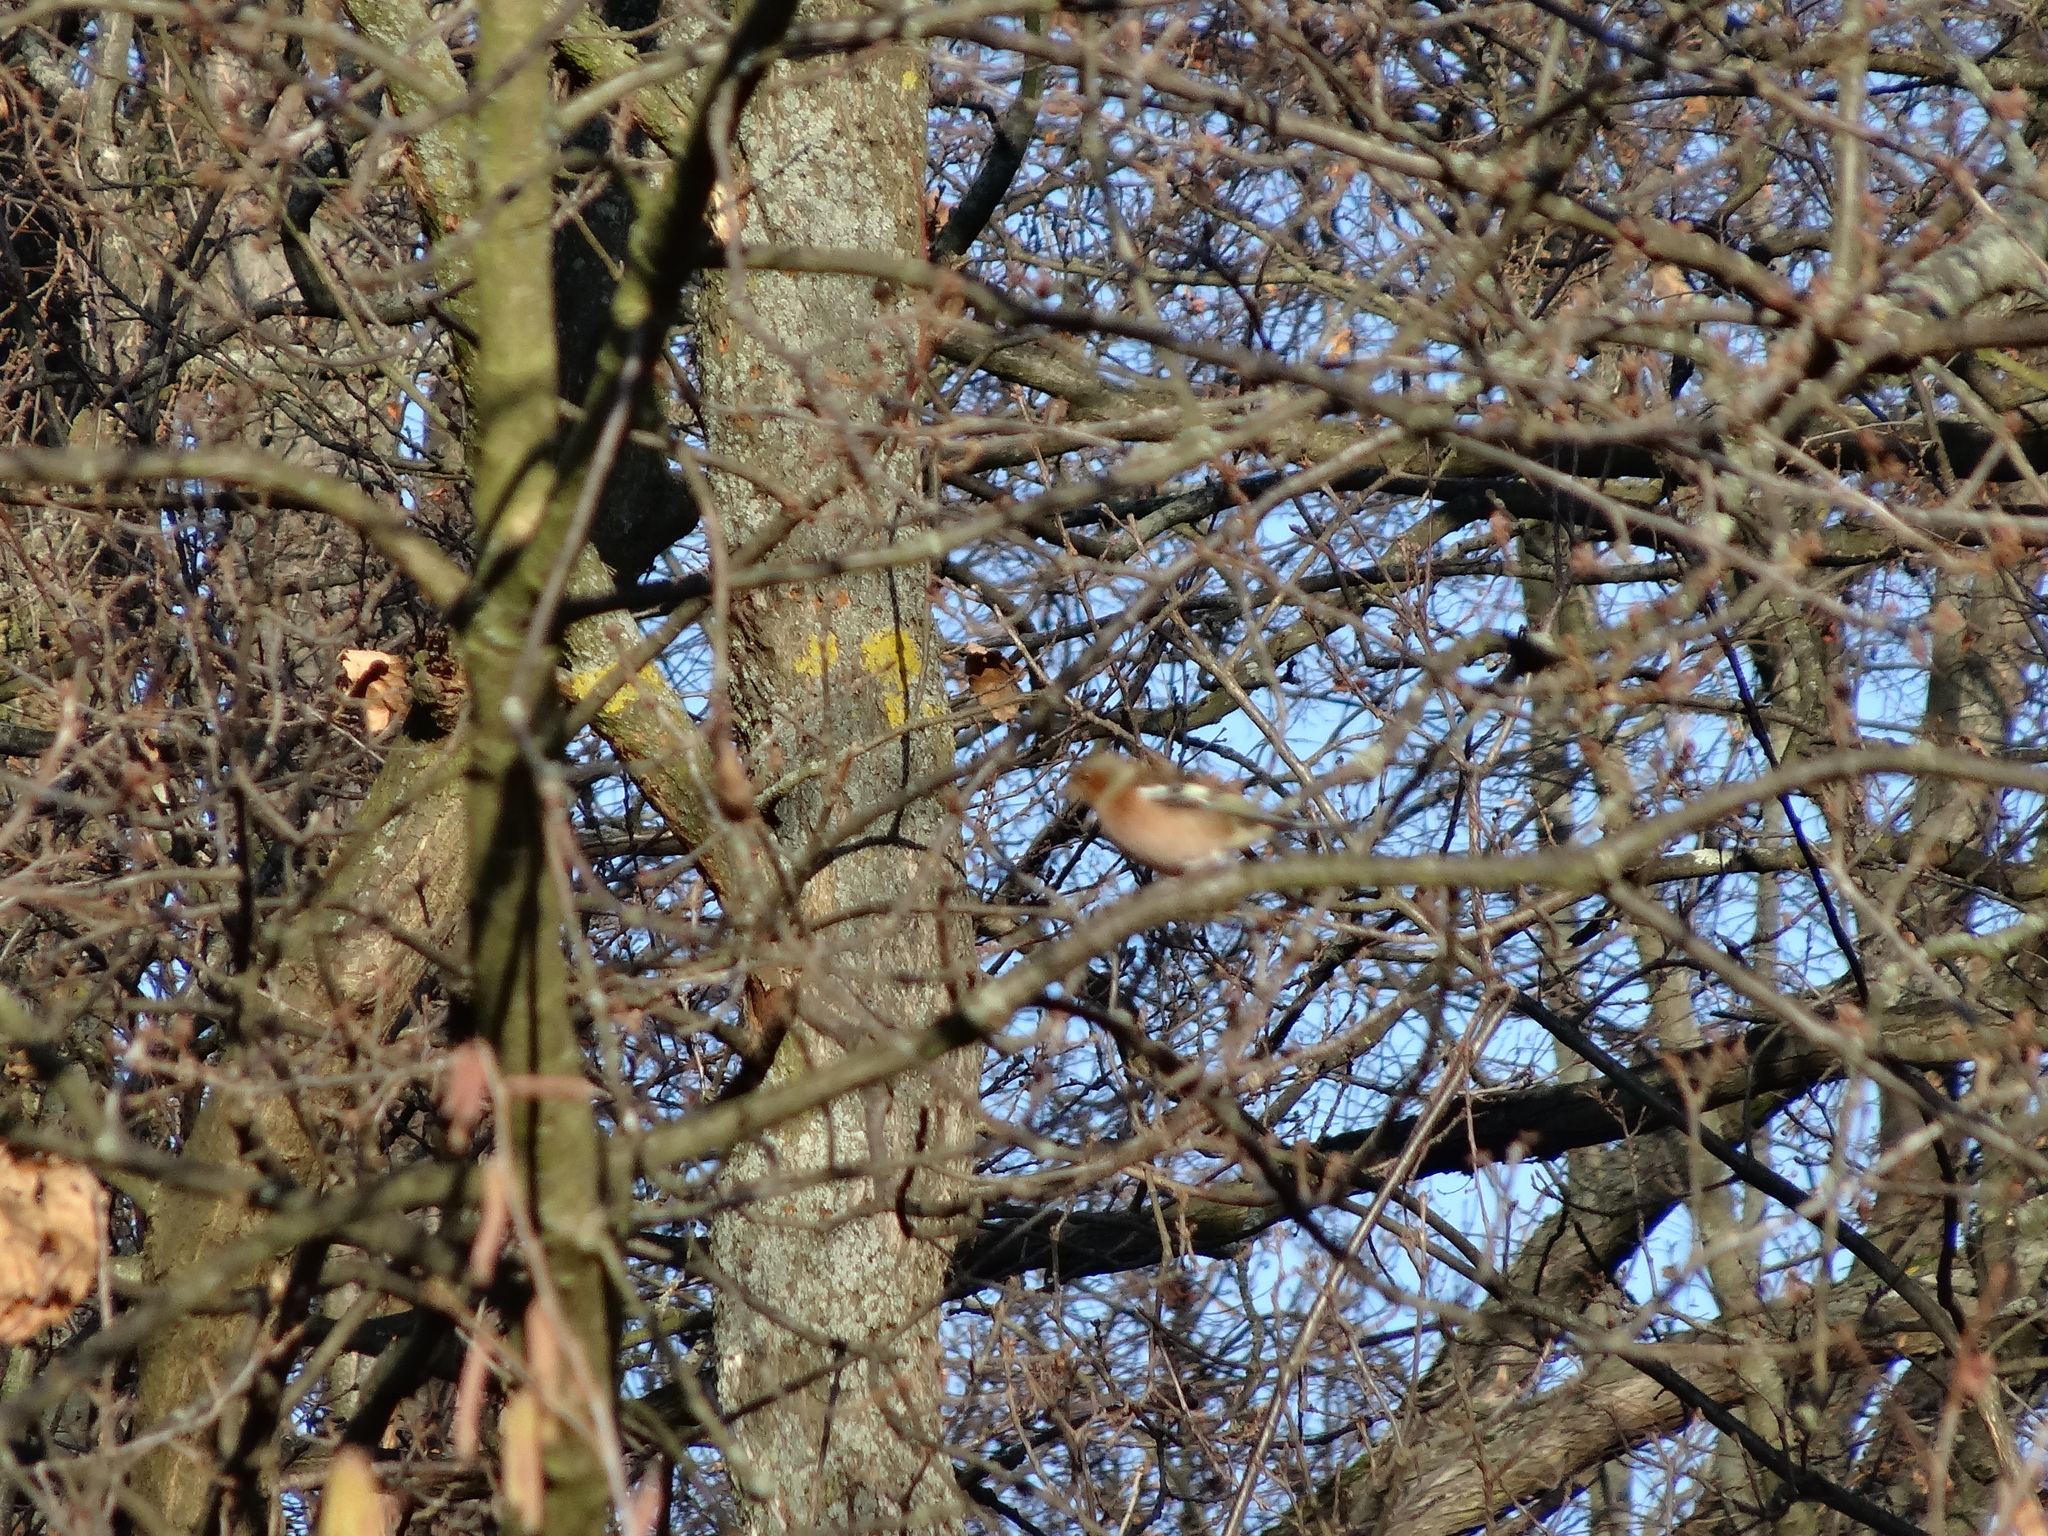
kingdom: Animalia
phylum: Chordata
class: Aves
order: Passeriformes
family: Fringillidae
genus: Fringilla
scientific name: Fringilla coelebs
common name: Common chaffinch
